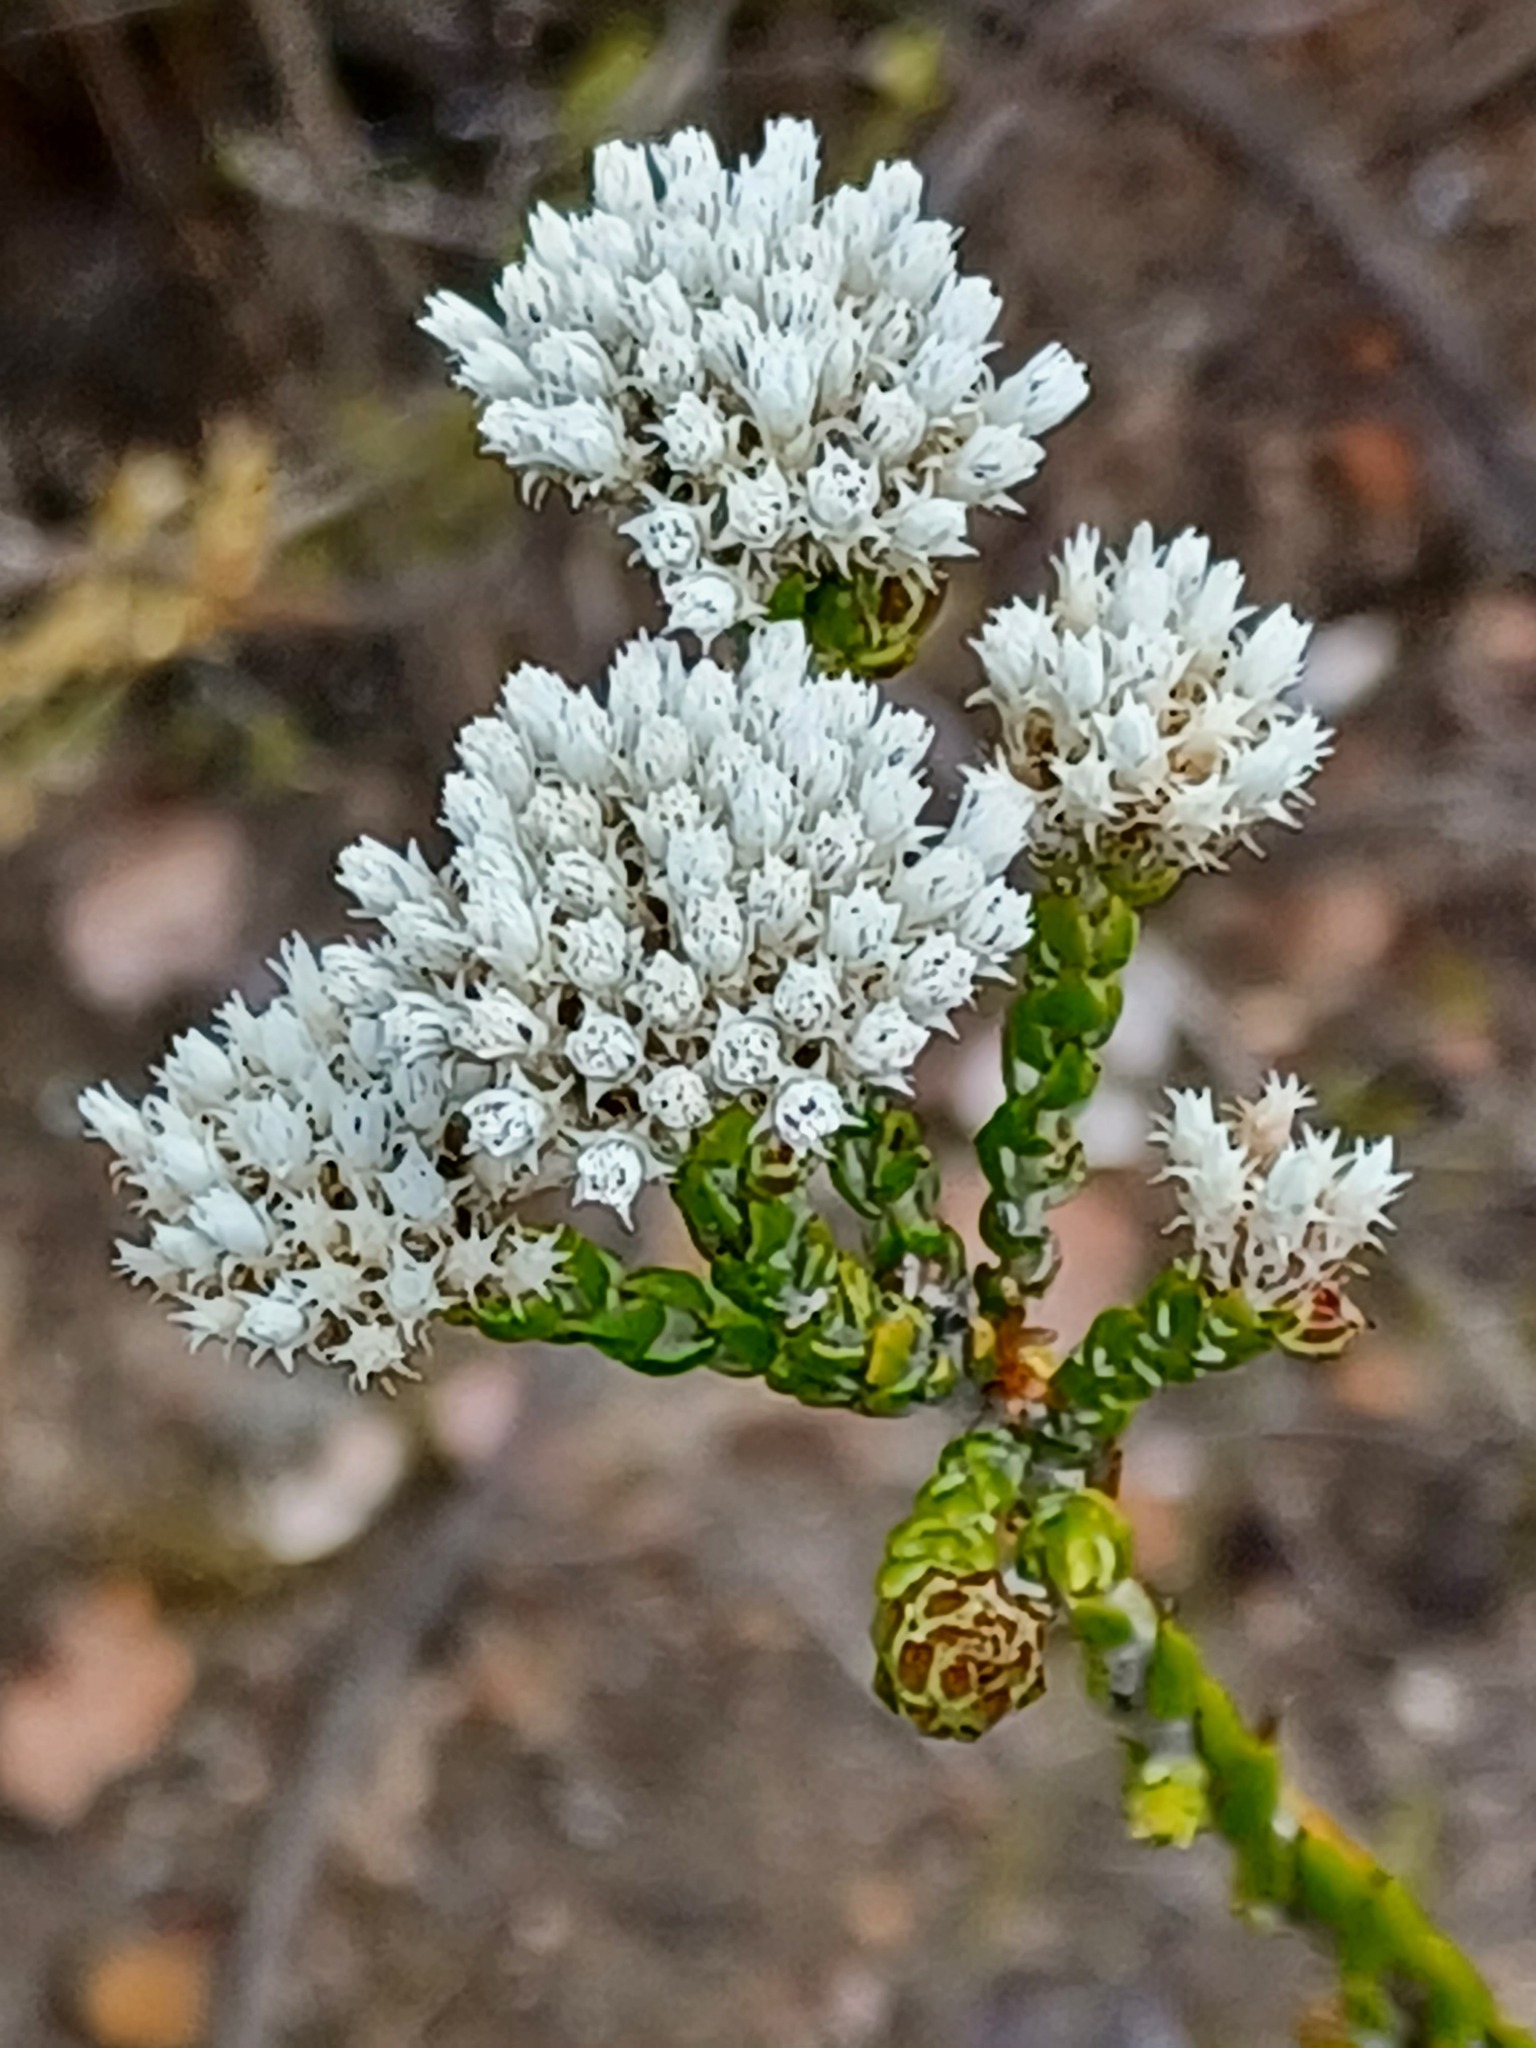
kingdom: Plantae
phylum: Tracheophyta
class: Magnoliopsida
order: Asterales
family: Asteraceae
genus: Metalasia
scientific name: Metalasia pulcherrima
